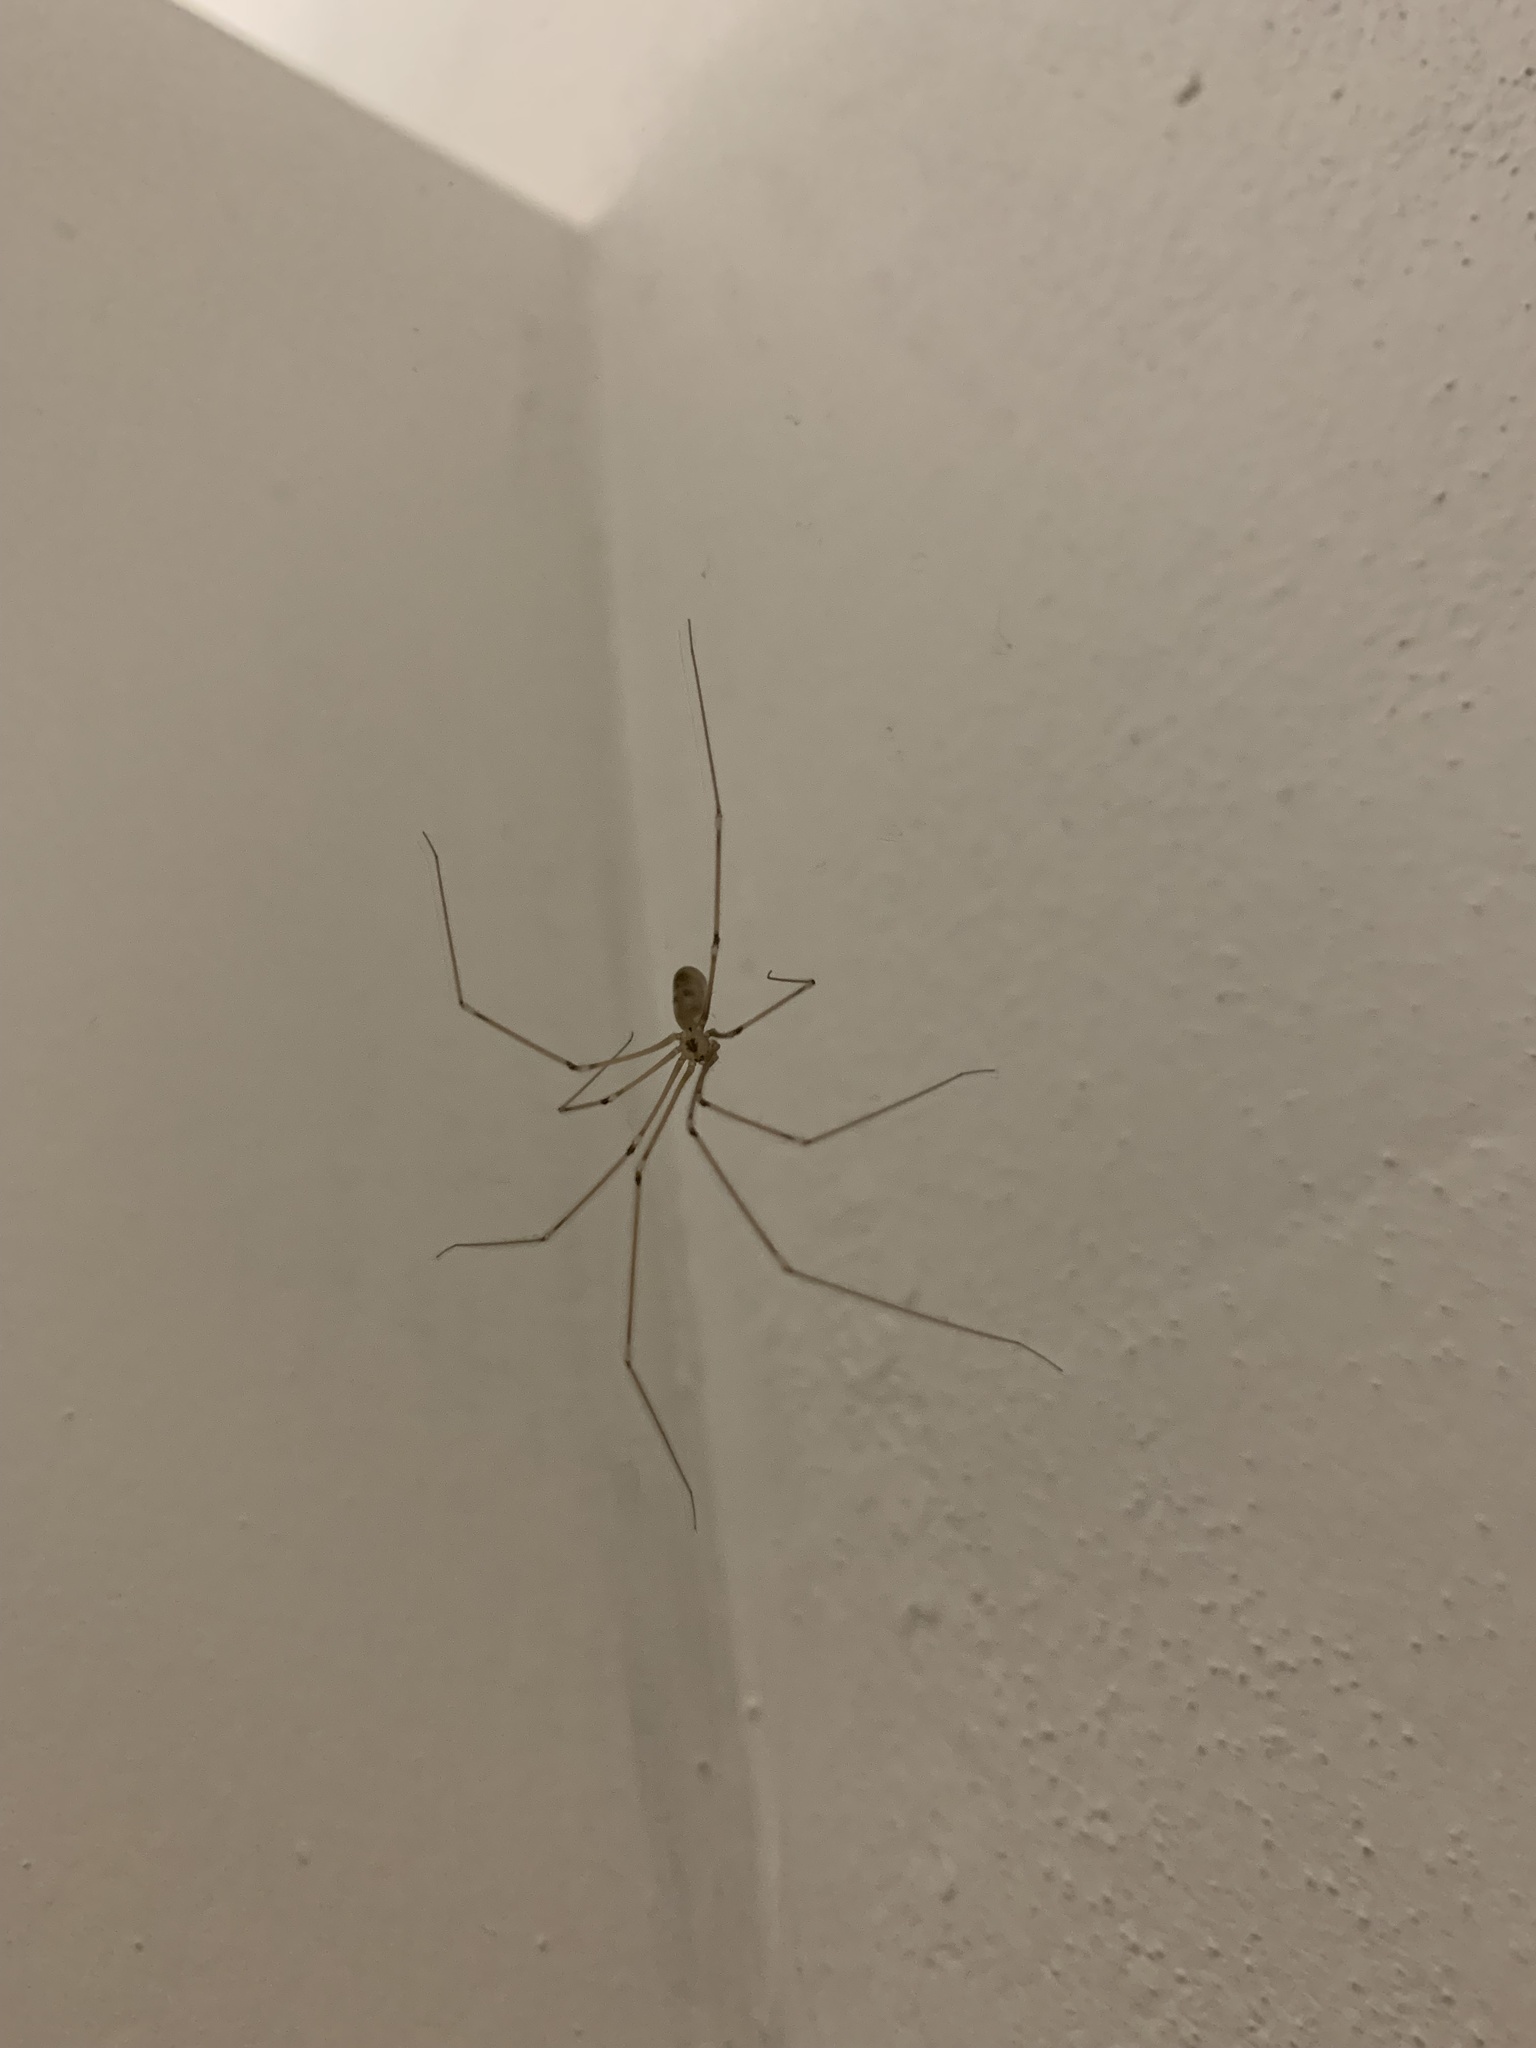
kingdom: Animalia
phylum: Arthropoda
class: Arachnida
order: Araneae
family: Pholcidae
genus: Pholcus
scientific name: Pholcus phalangioides
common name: Longbodied cellar spider
